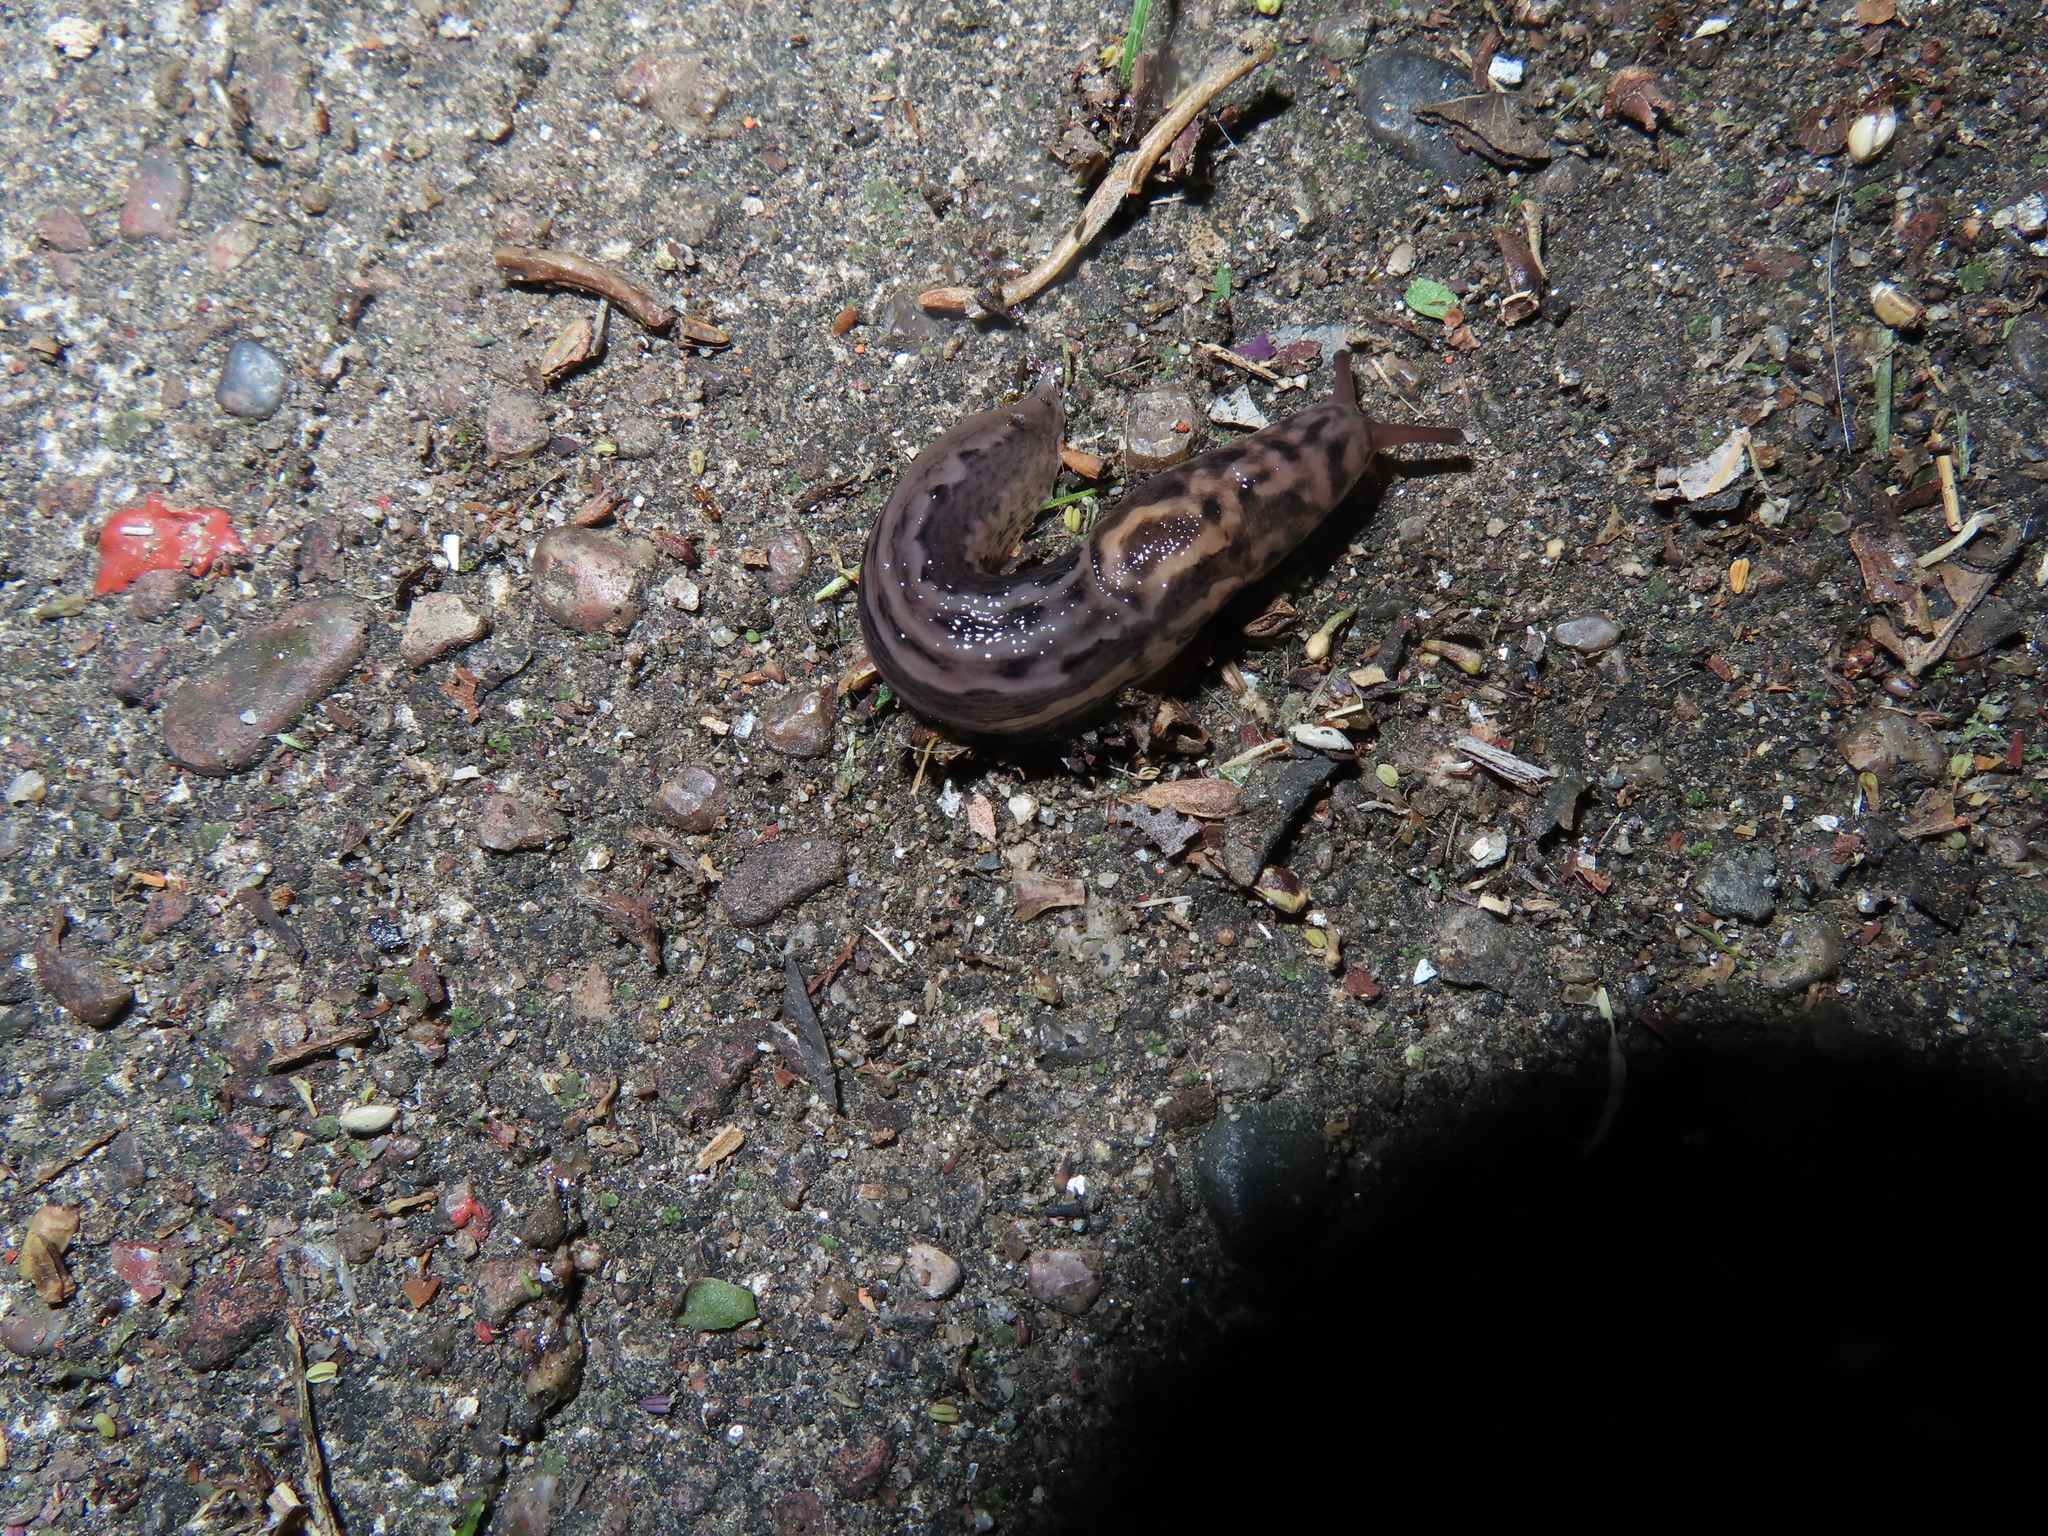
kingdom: Animalia
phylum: Mollusca
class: Gastropoda
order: Stylommatophora
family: Limacidae
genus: Limax
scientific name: Limax maximus
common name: Great grey slug
